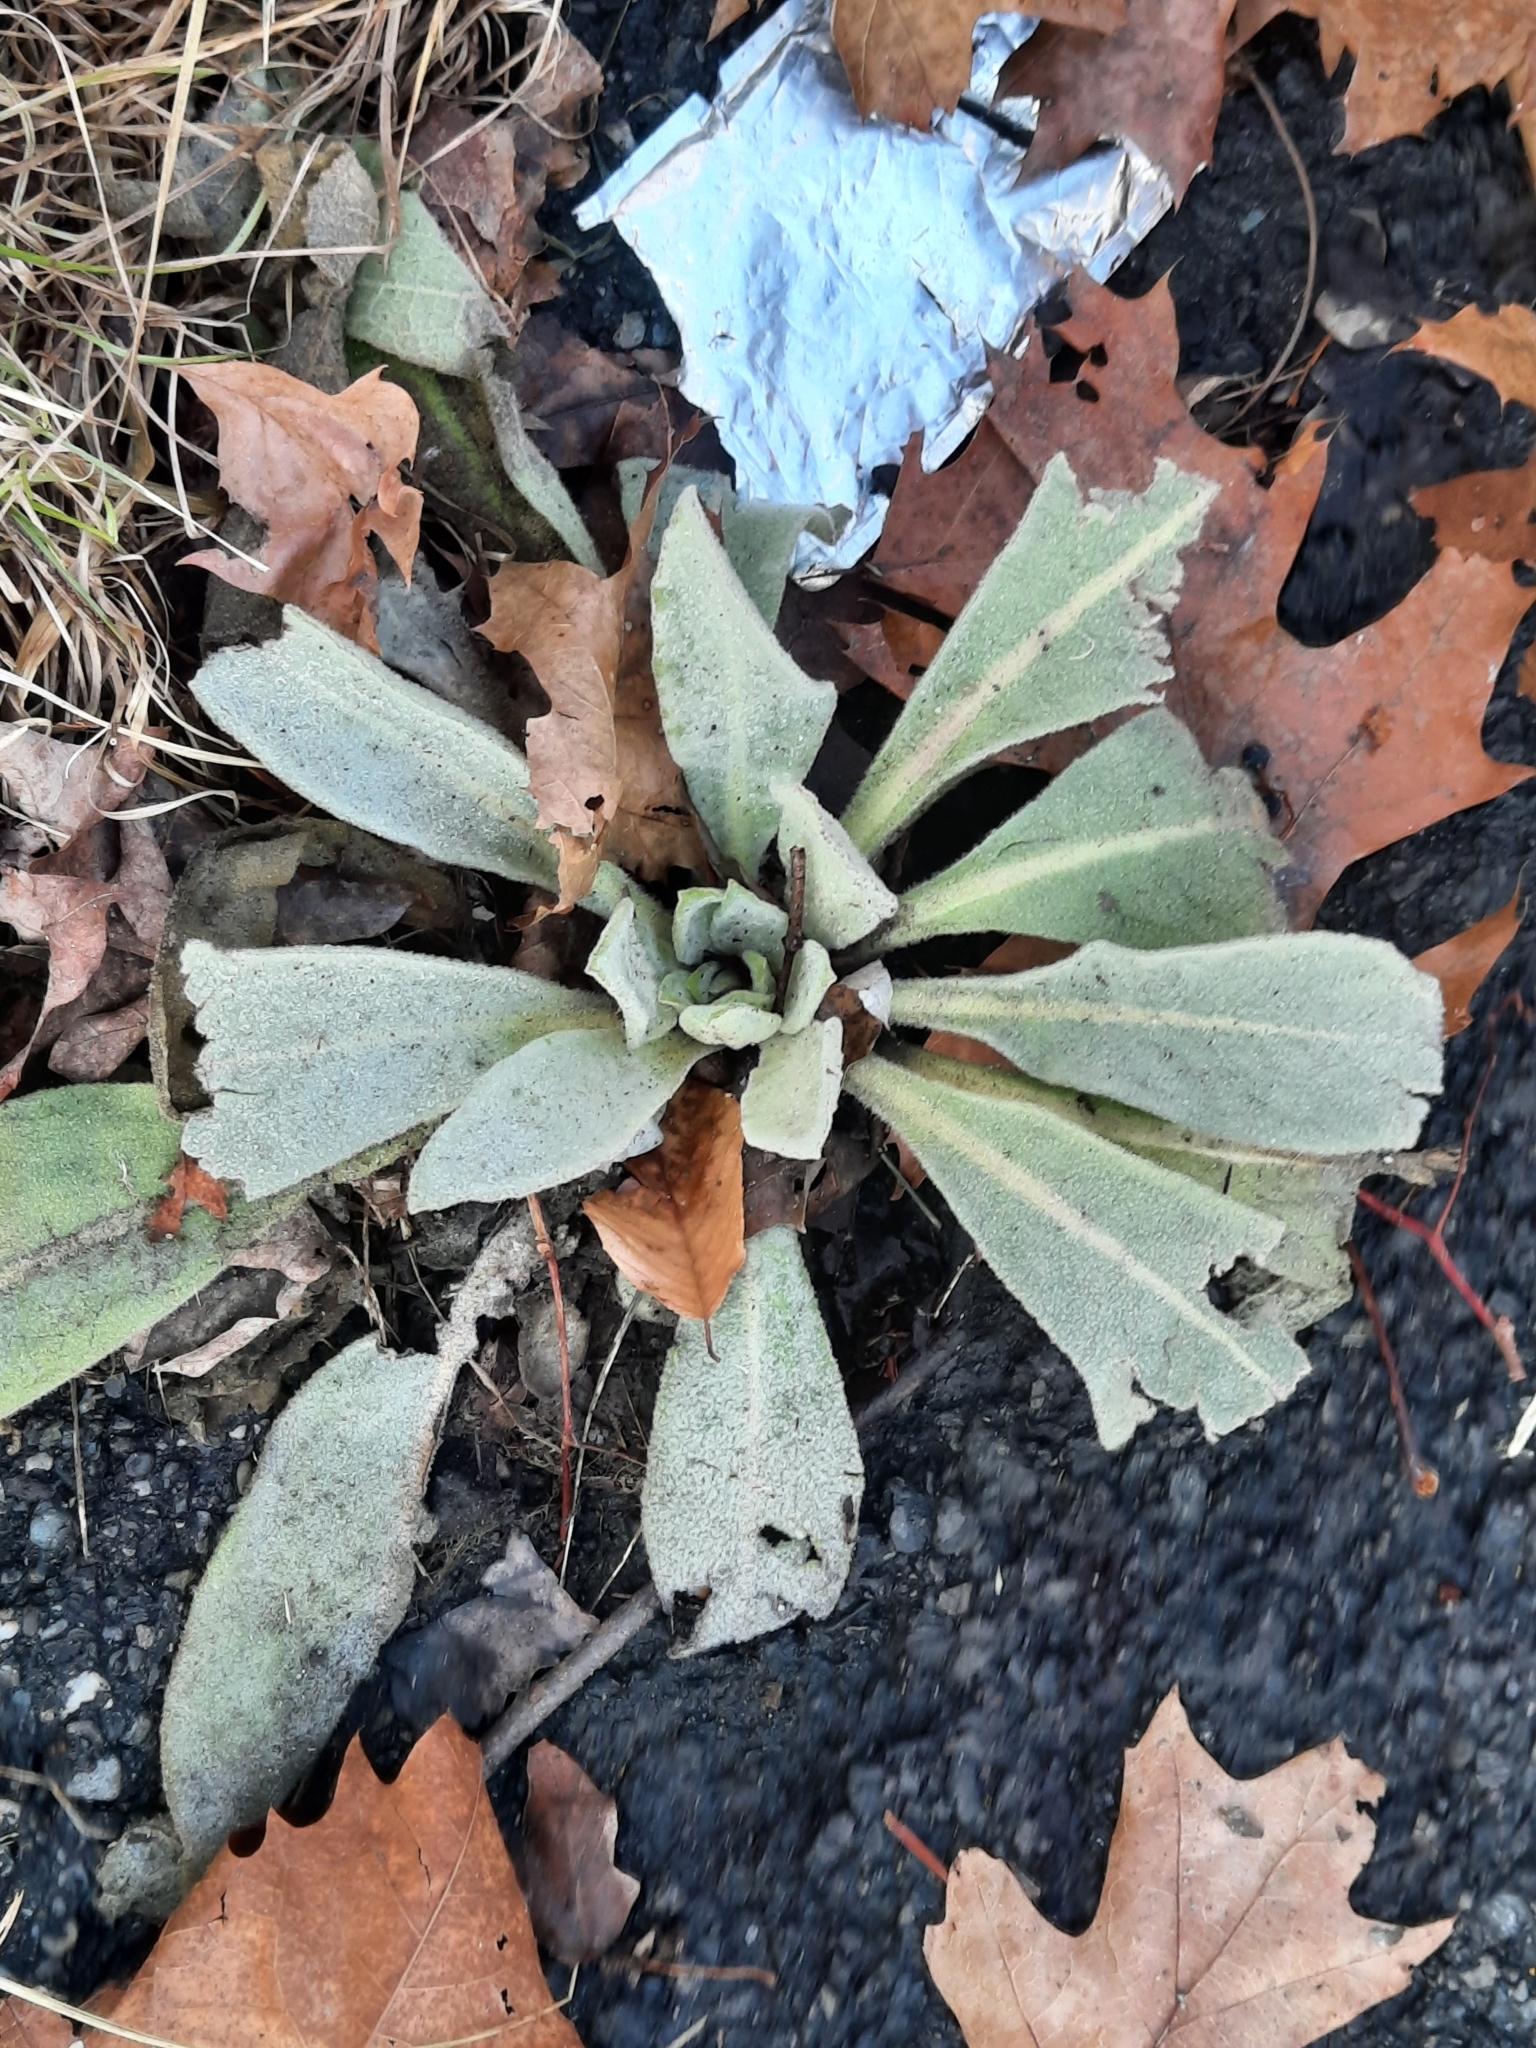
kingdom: Plantae
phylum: Tracheophyta
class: Magnoliopsida
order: Lamiales
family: Scrophulariaceae
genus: Verbascum
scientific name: Verbascum thapsus
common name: Common mullein
